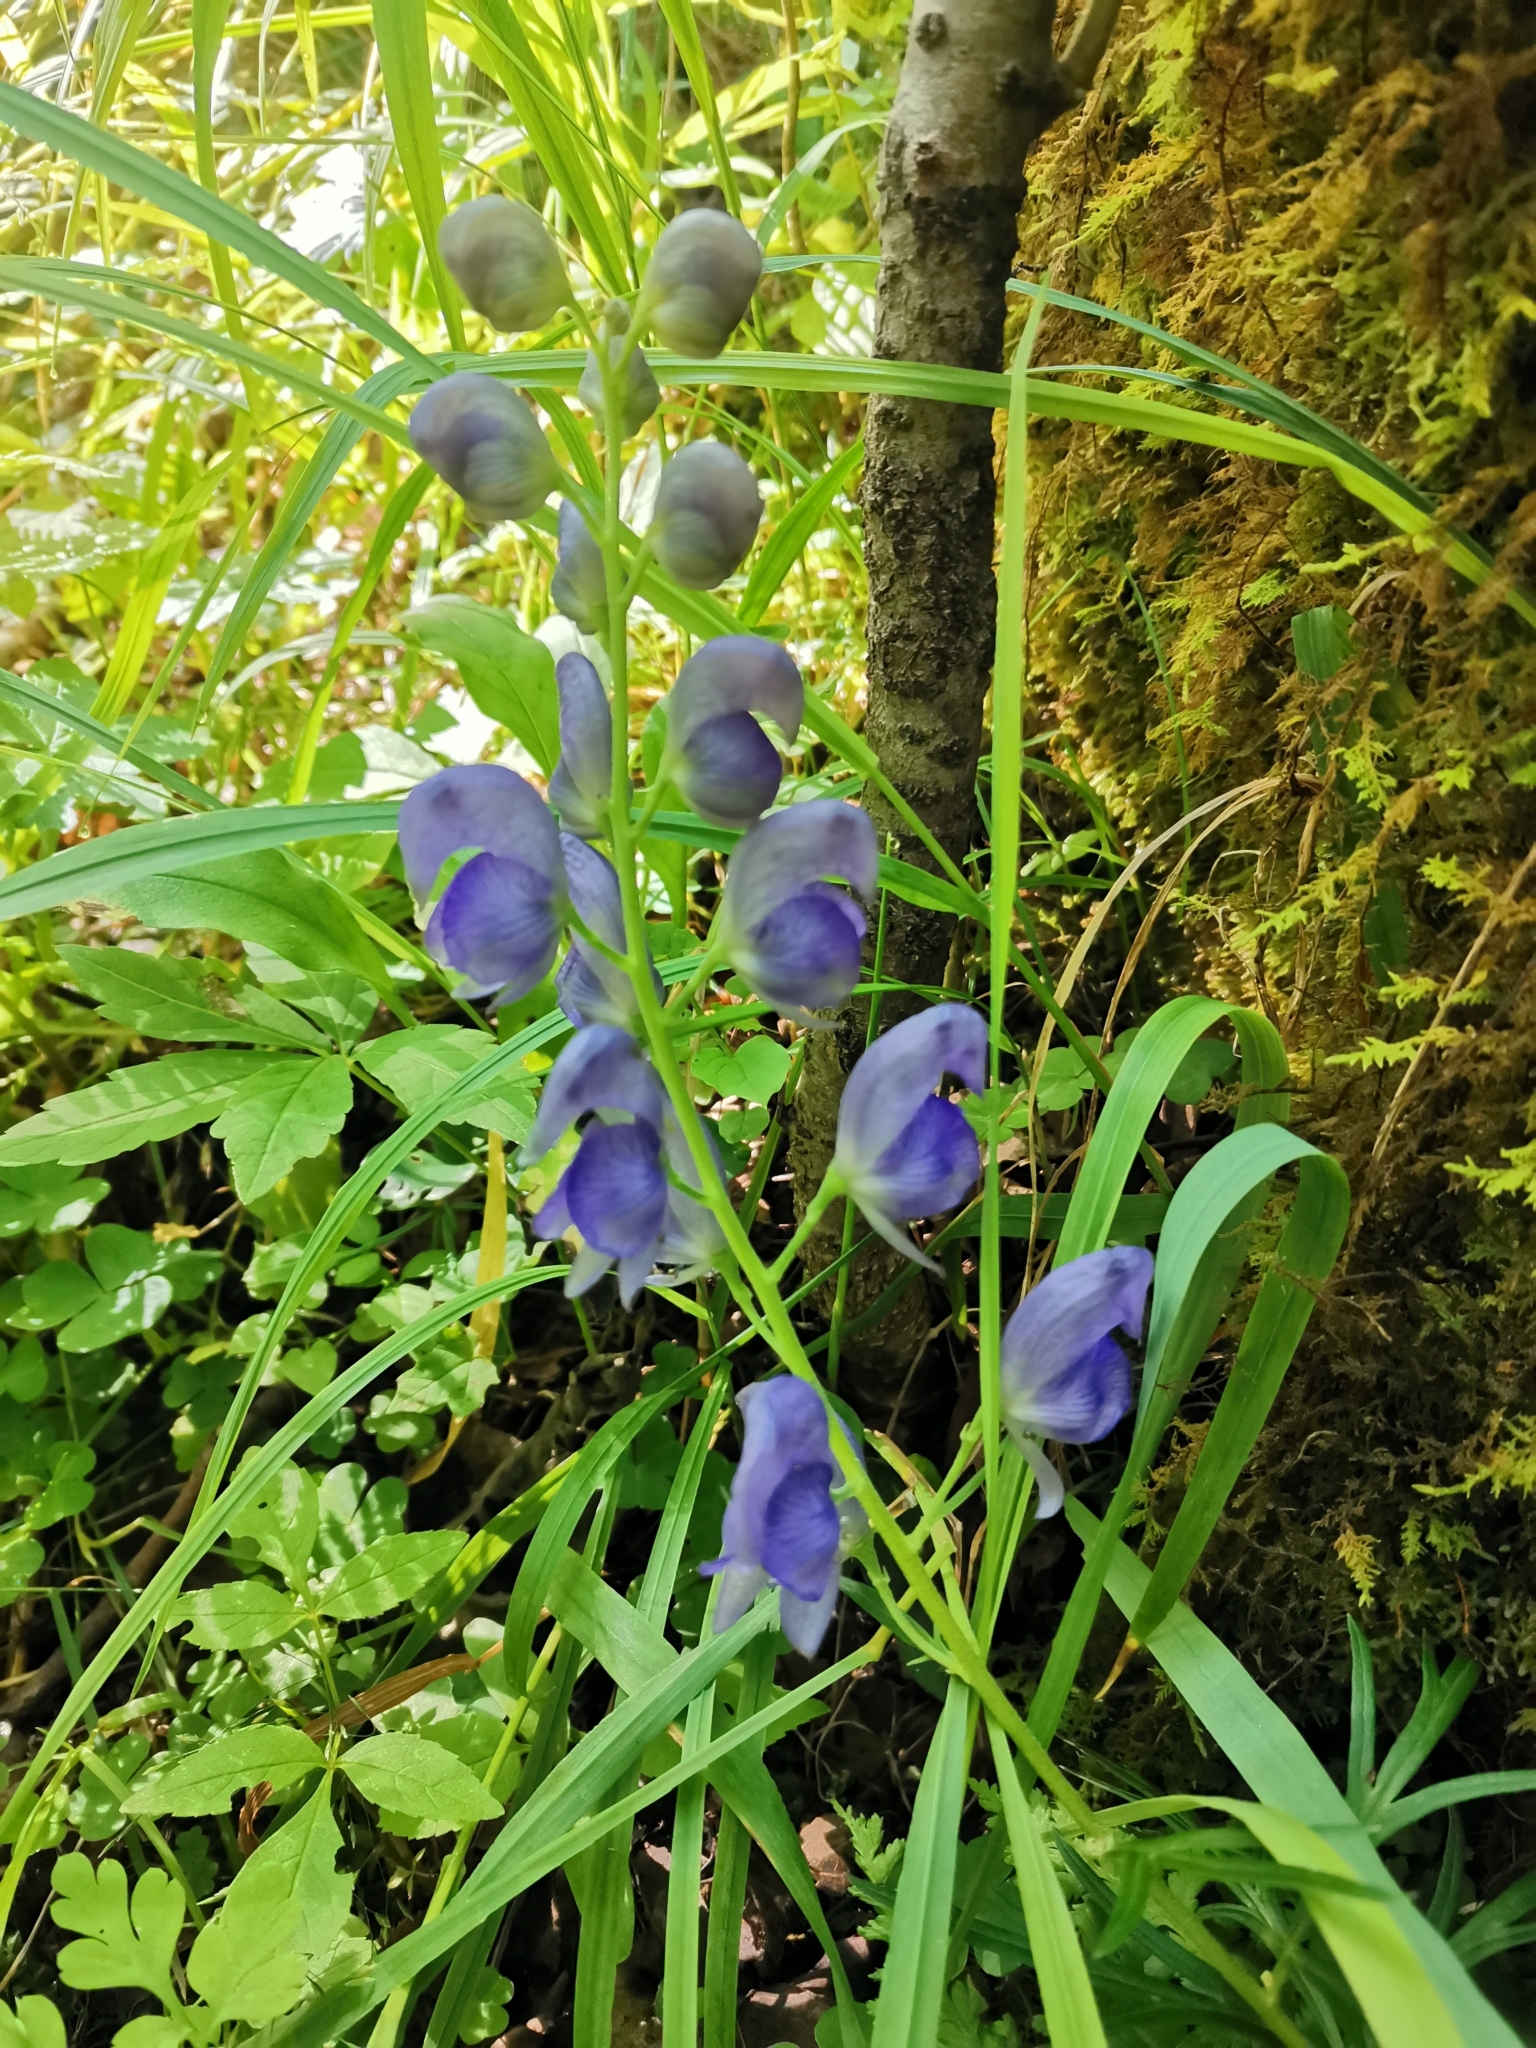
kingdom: Plantae
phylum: Tracheophyta
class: Magnoliopsida
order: Ranunculales
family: Ranunculaceae
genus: Aconitum
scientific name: Aconitum napellus
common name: Garden monkshood
